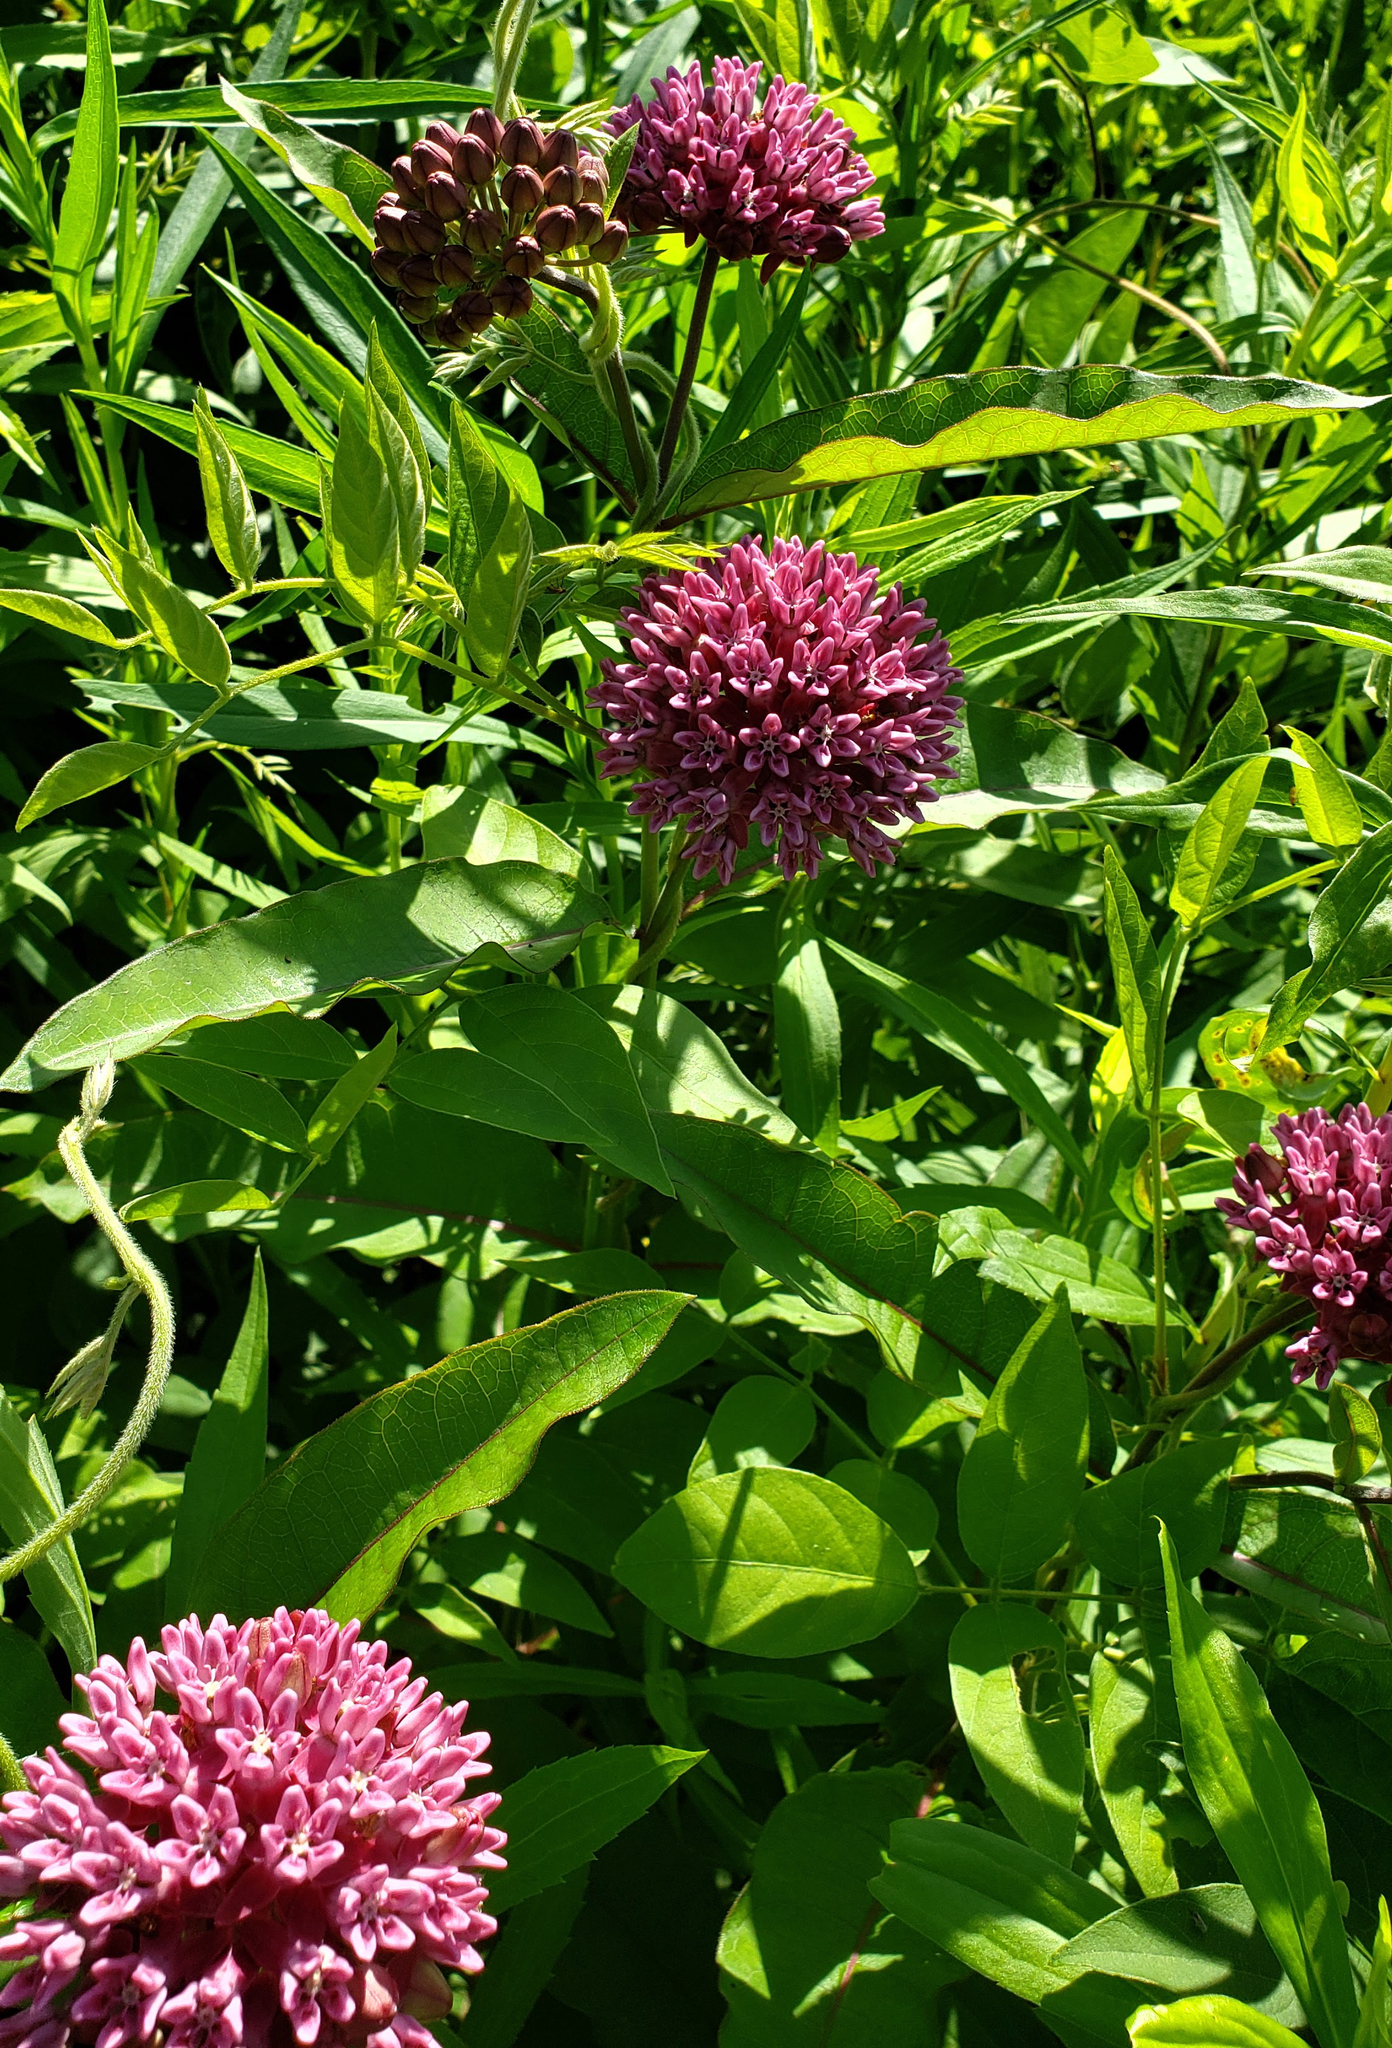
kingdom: Plantae
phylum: Tracheophyta
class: Magnoliopsida
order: Gentianales
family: Apocynaceae
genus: Asclepias
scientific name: Asclepias purpurascens
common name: Purple milkweed
